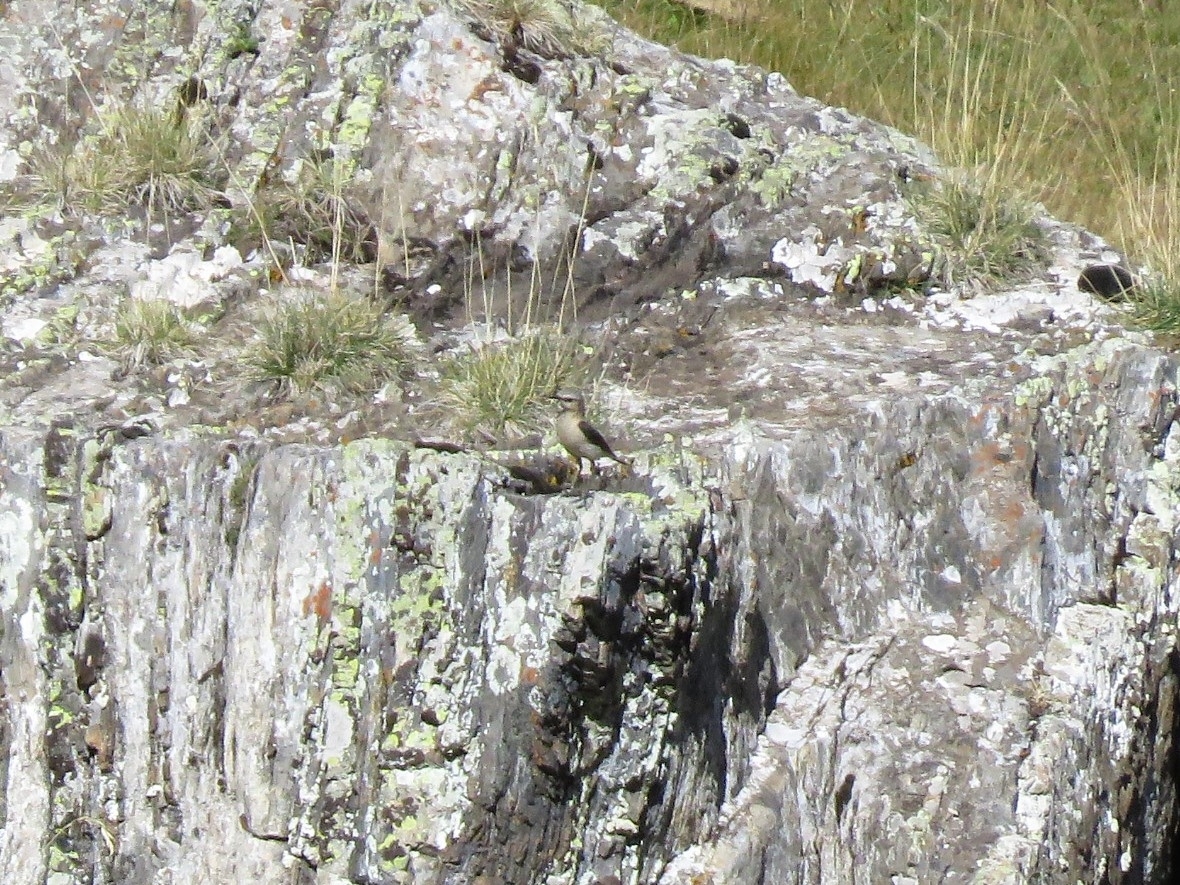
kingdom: Animalia
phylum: Chordata
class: Aves
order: Passeriformes
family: Muscicapidae
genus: Oenanthe
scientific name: Oenanthe oenanthe
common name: Northern wheatear
